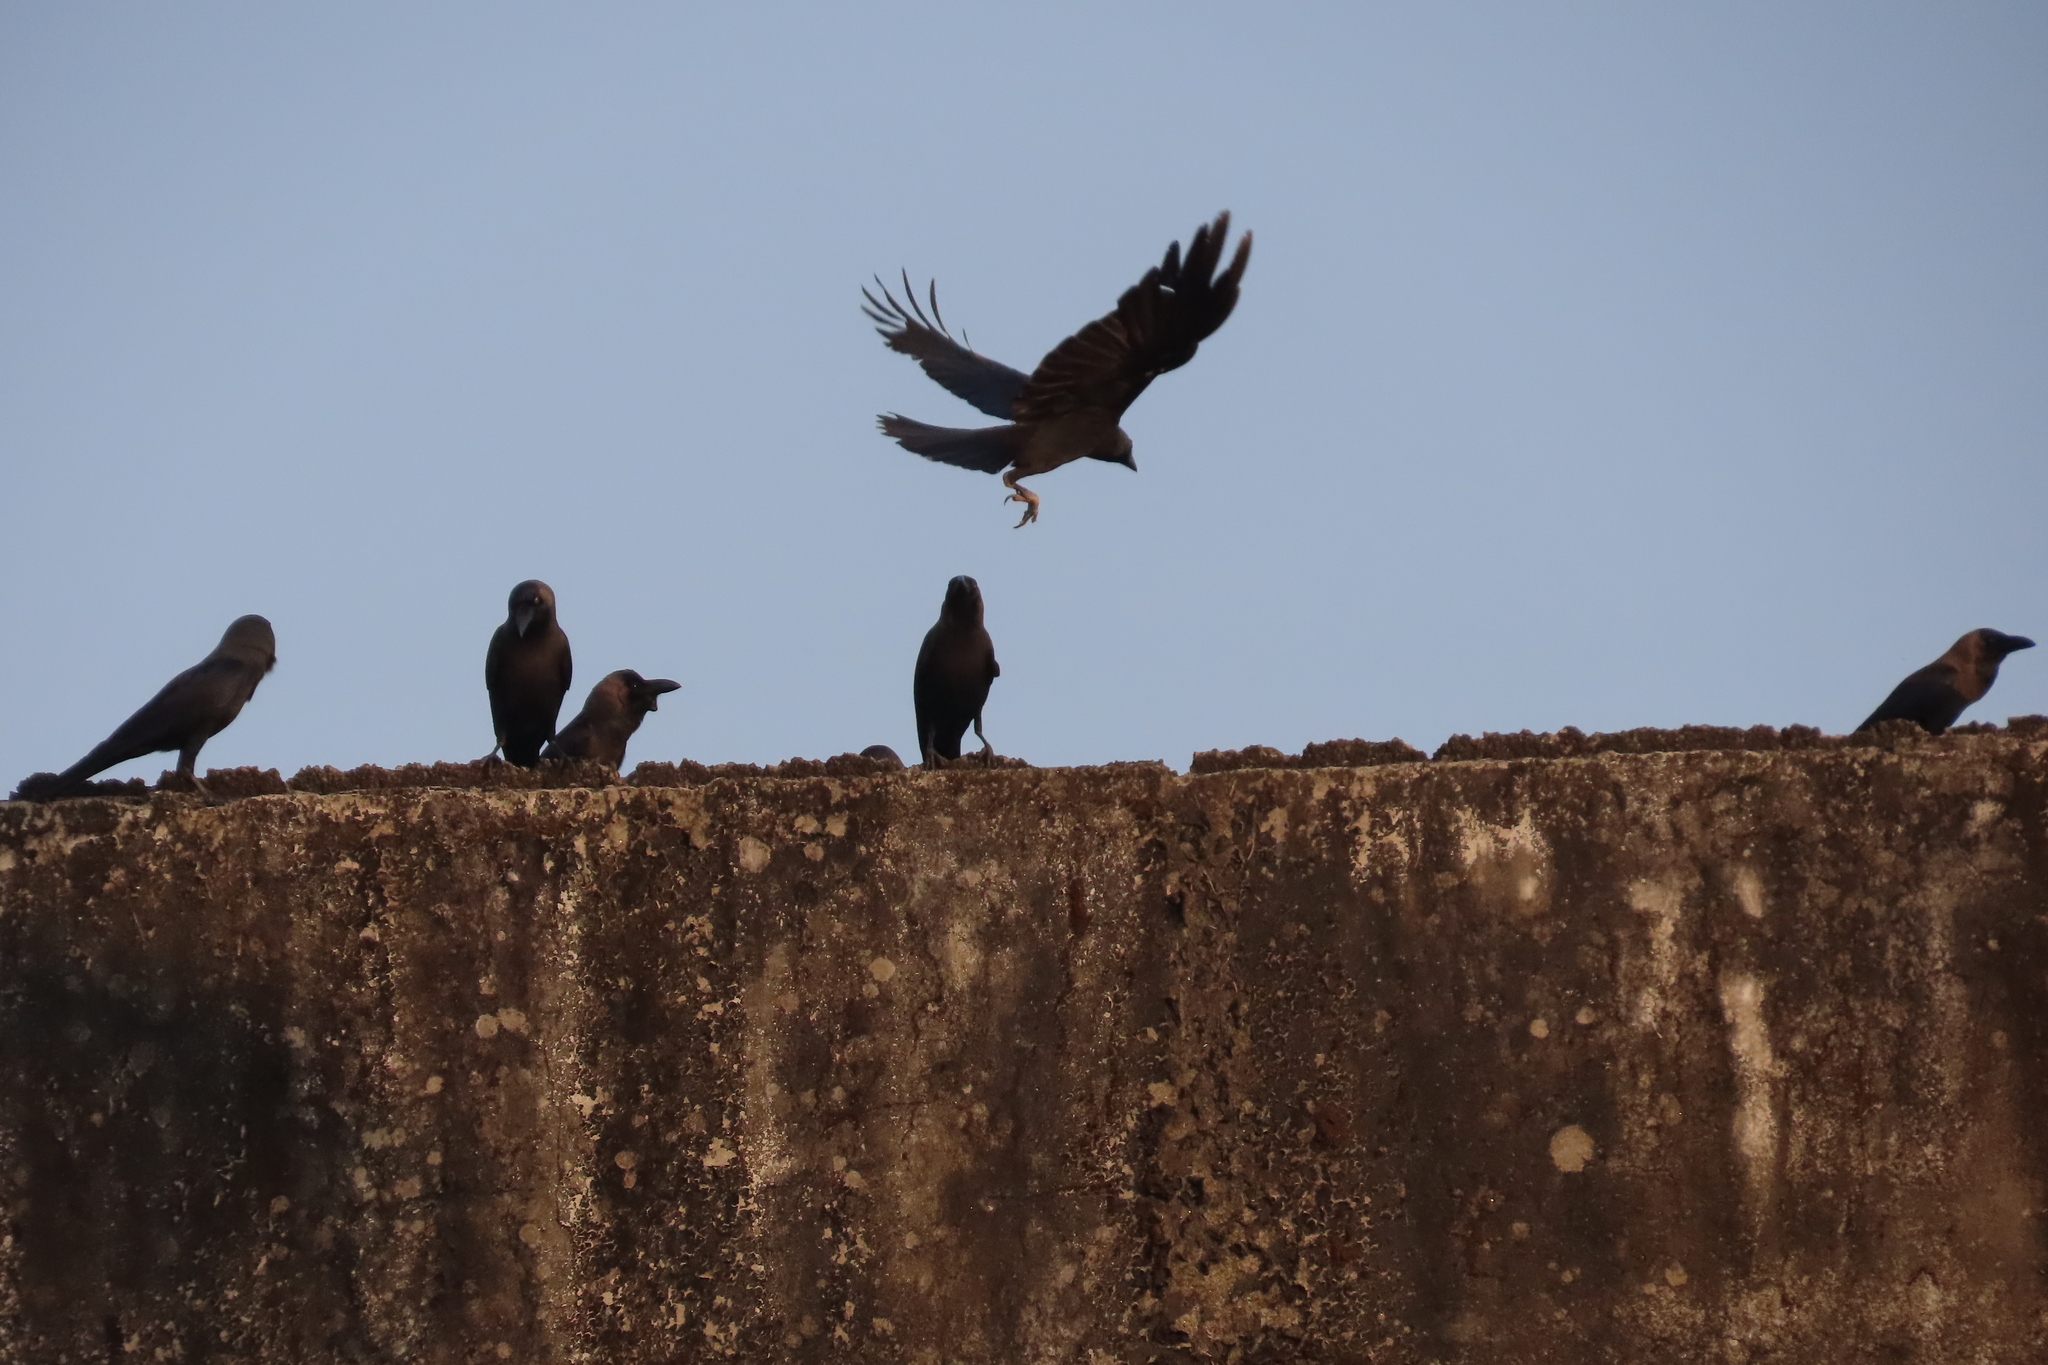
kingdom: Animalia
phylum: Chordata
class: Aves
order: Passeriformes
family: Corvidae
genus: Corvus
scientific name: Corvus splendens
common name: House crow
